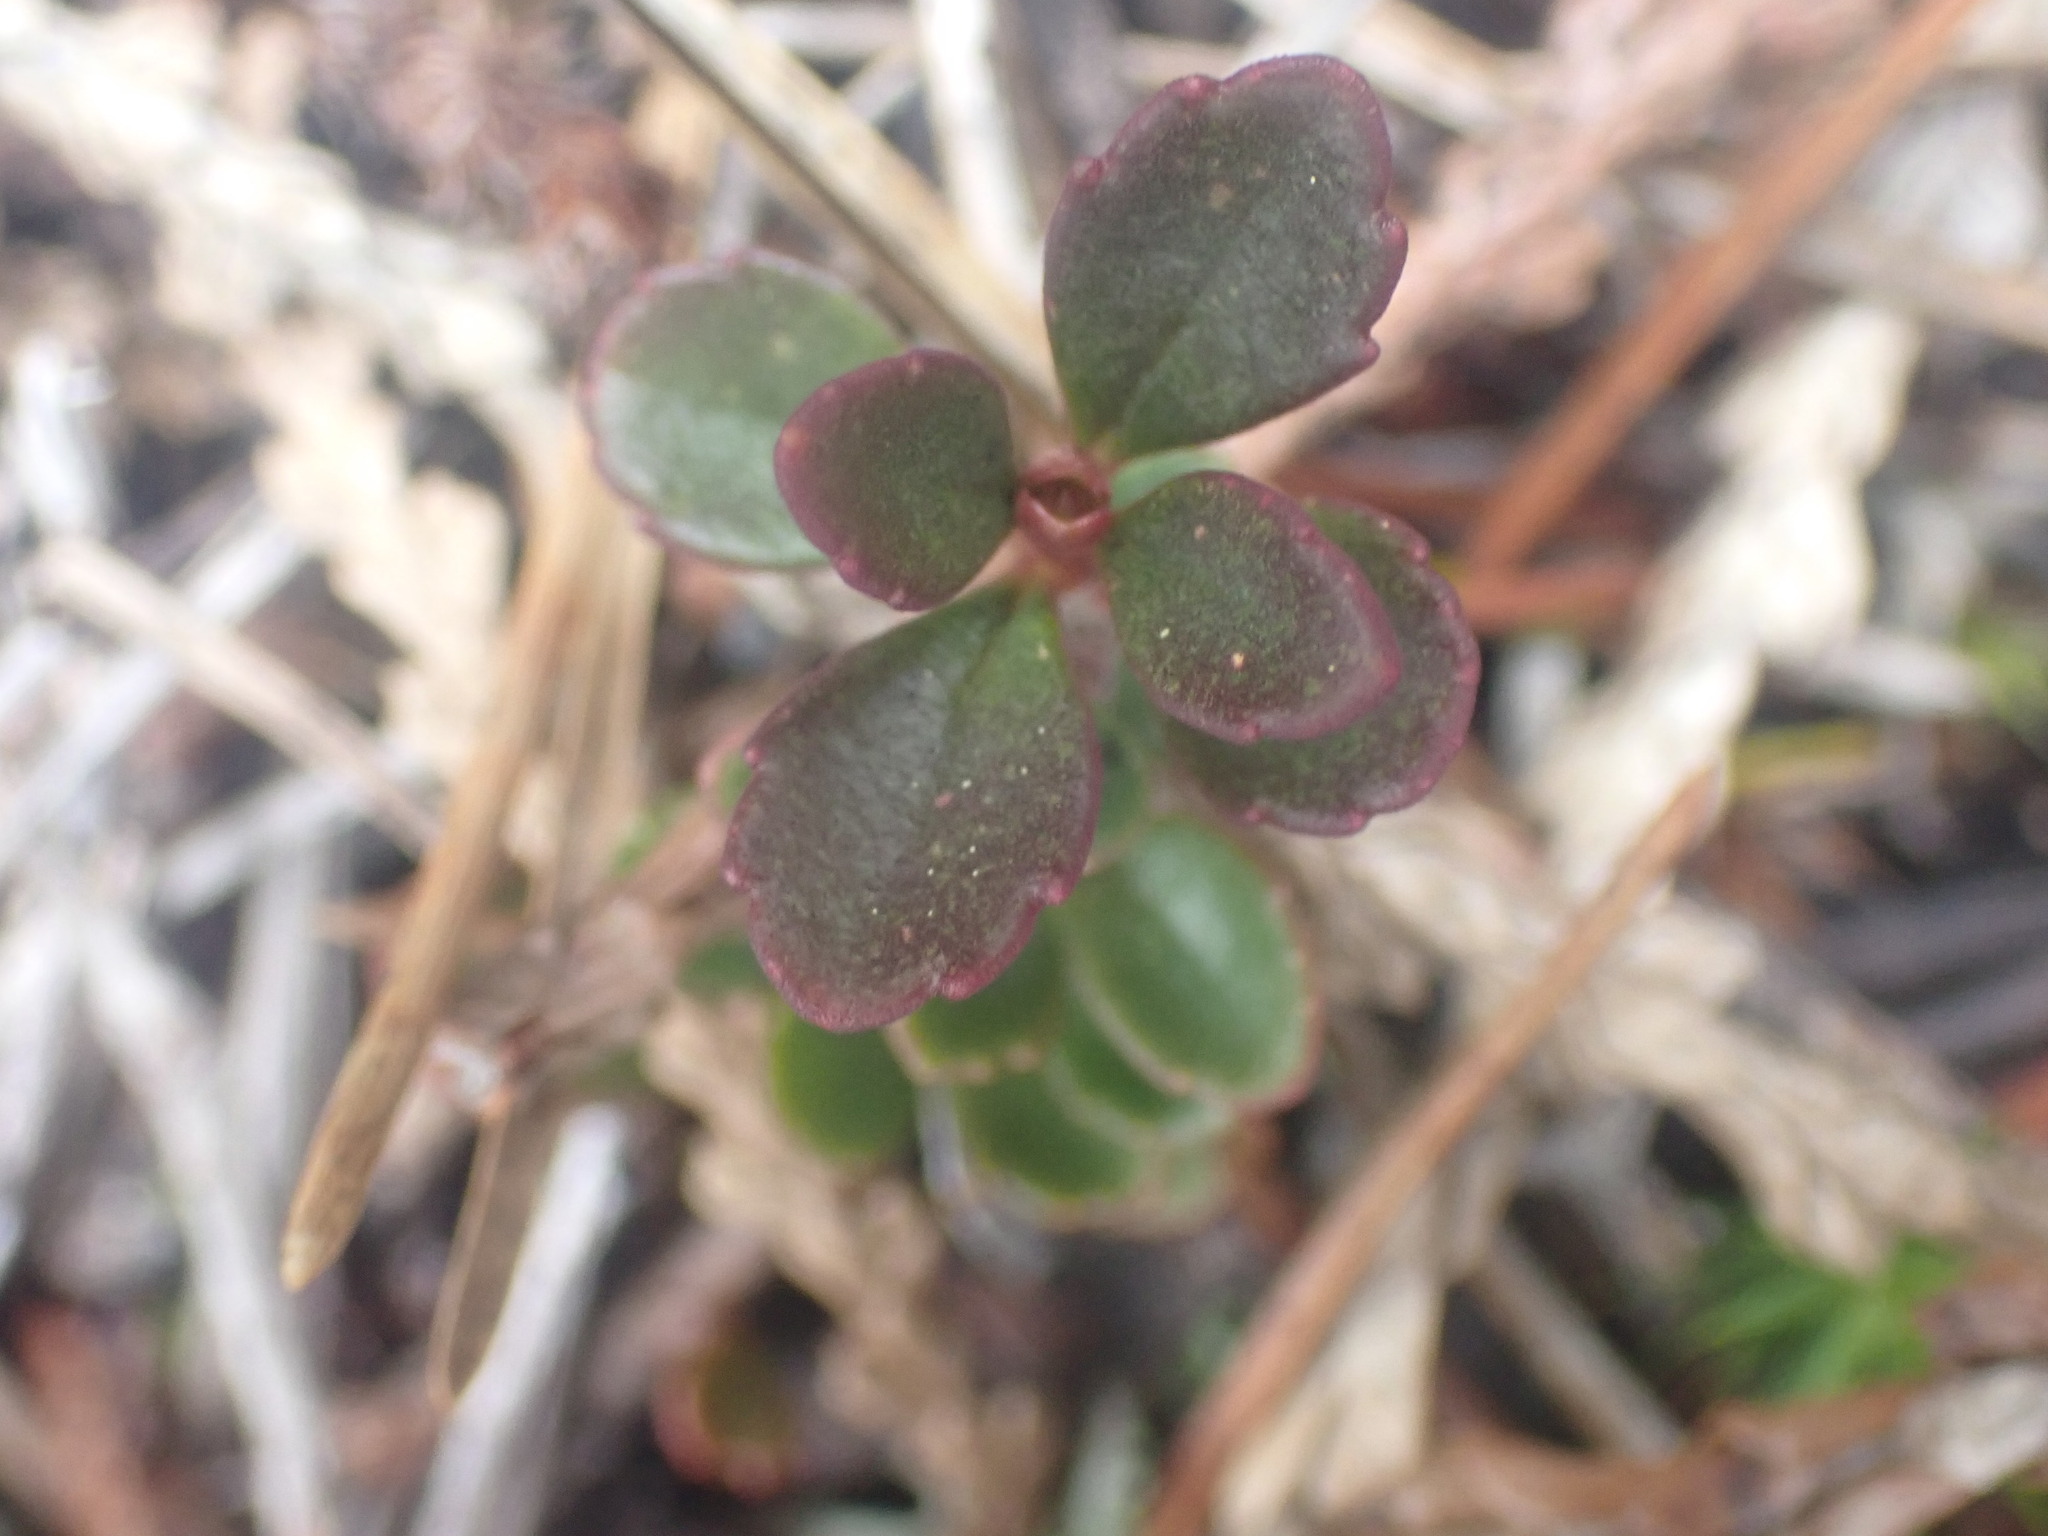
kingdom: Plantae
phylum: Tracheophyta
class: Magnoliopsida
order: Lamiales
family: Plantaginaceae
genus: Penstemon
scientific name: Penstemon davidsonii
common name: Davidson's penstemon
